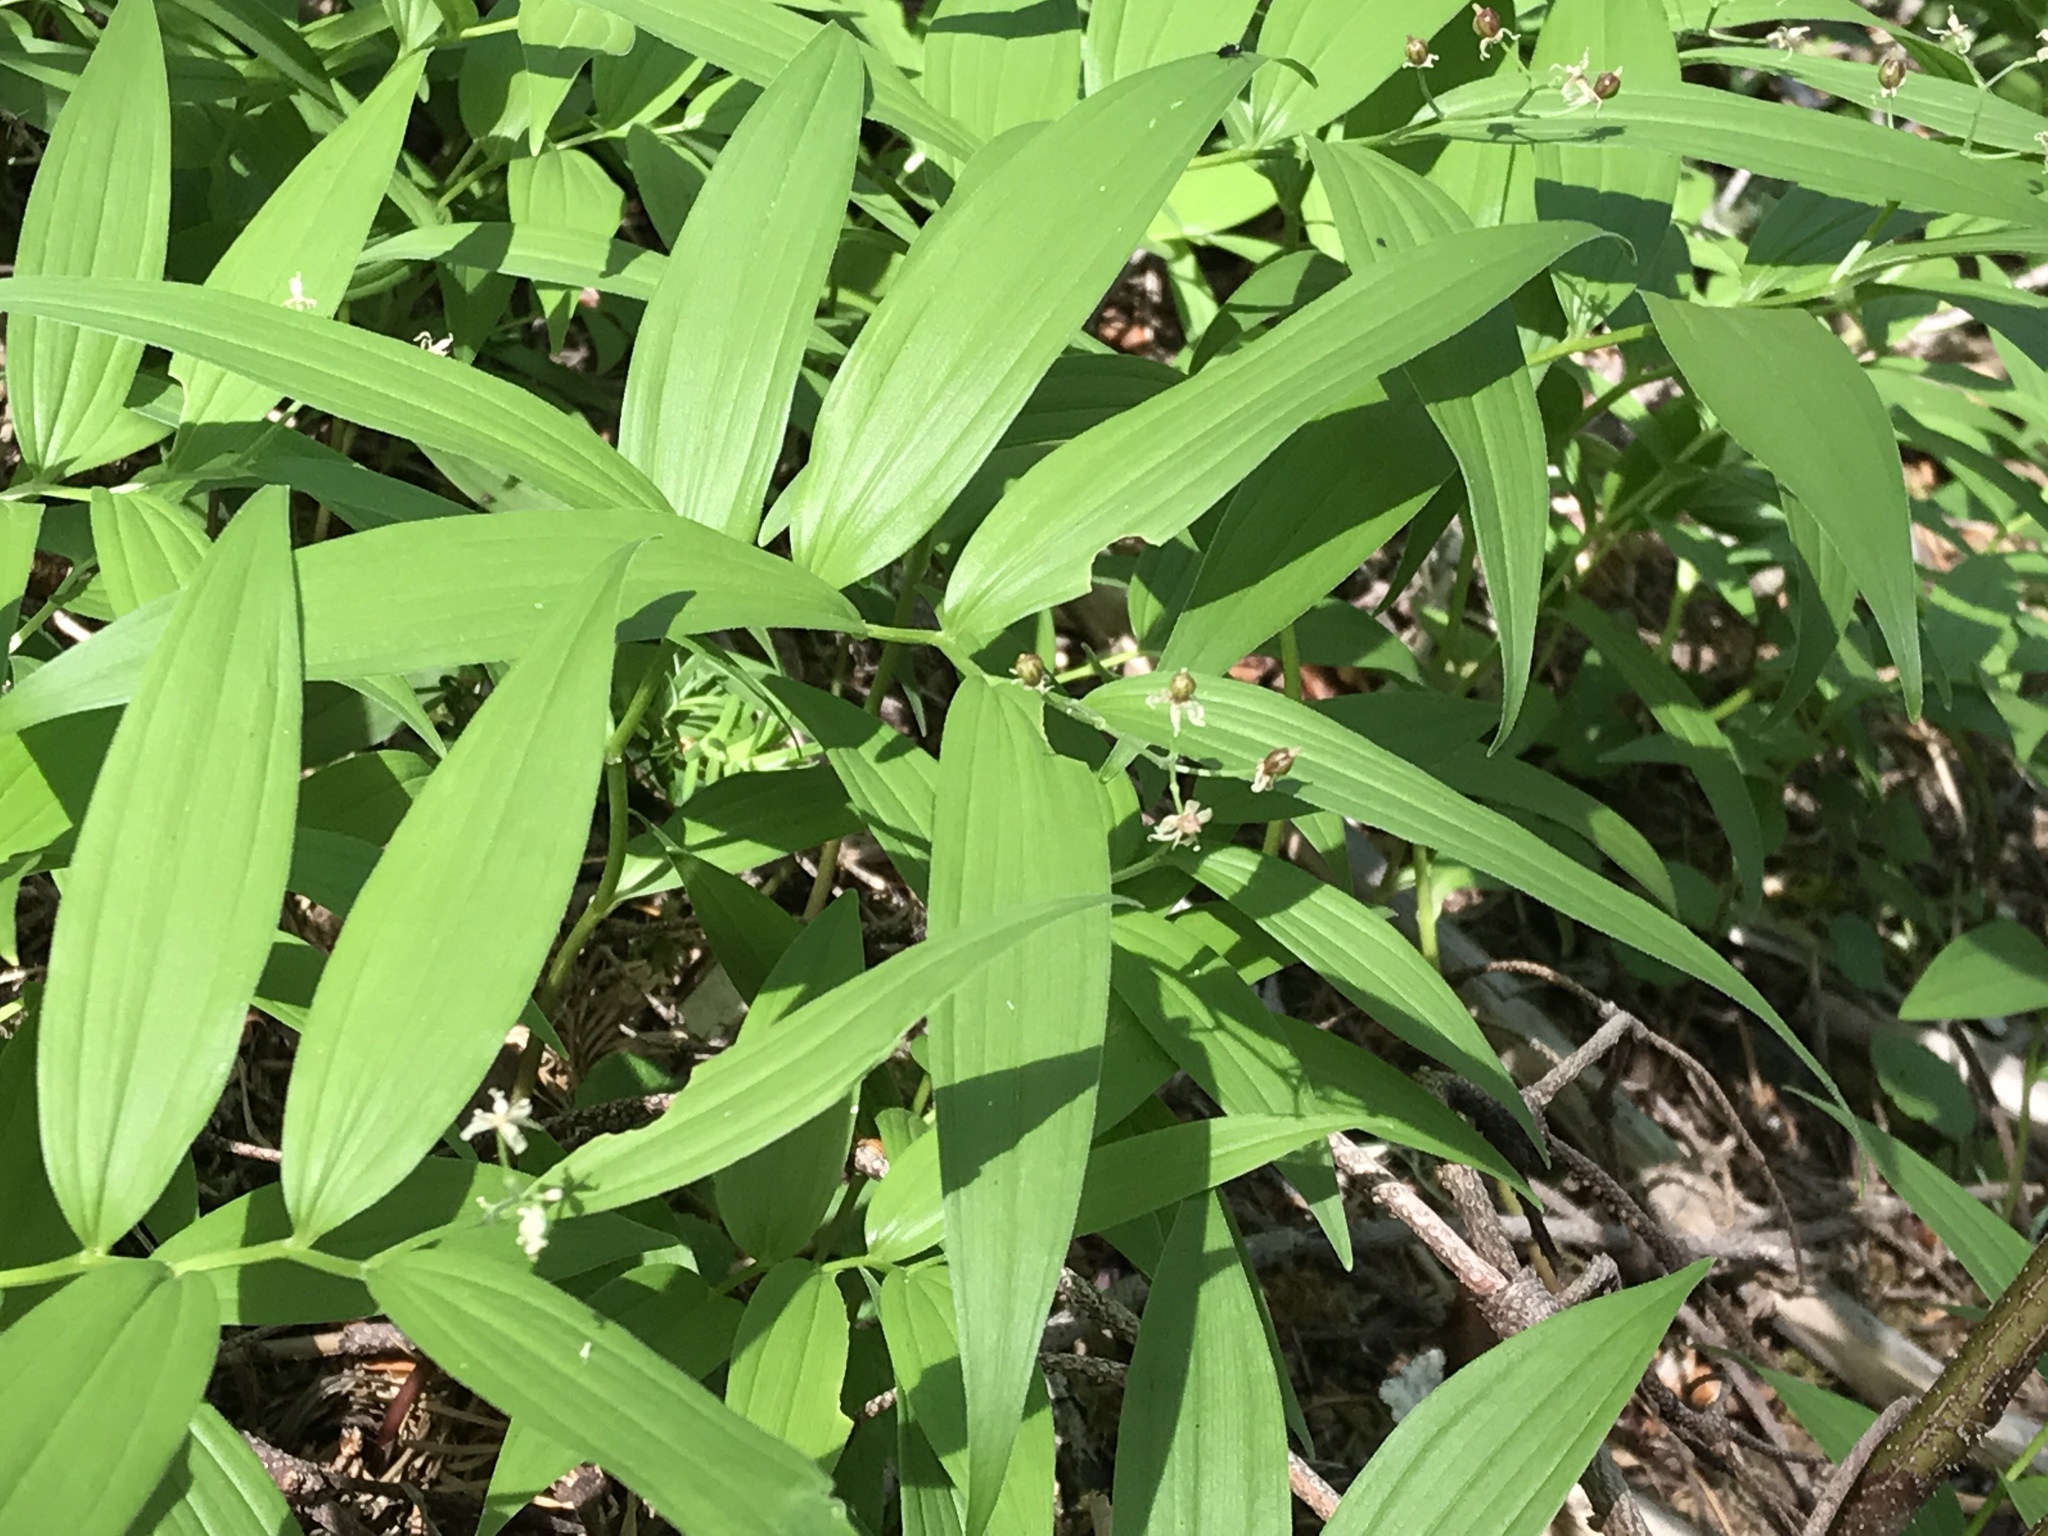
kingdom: Plantae
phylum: Tracheophyta
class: Liliopsida
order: Asparagales
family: Asparagaceae
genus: Maianthemum
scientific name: Maianthemum stellatum
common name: Little false solomon's seal
